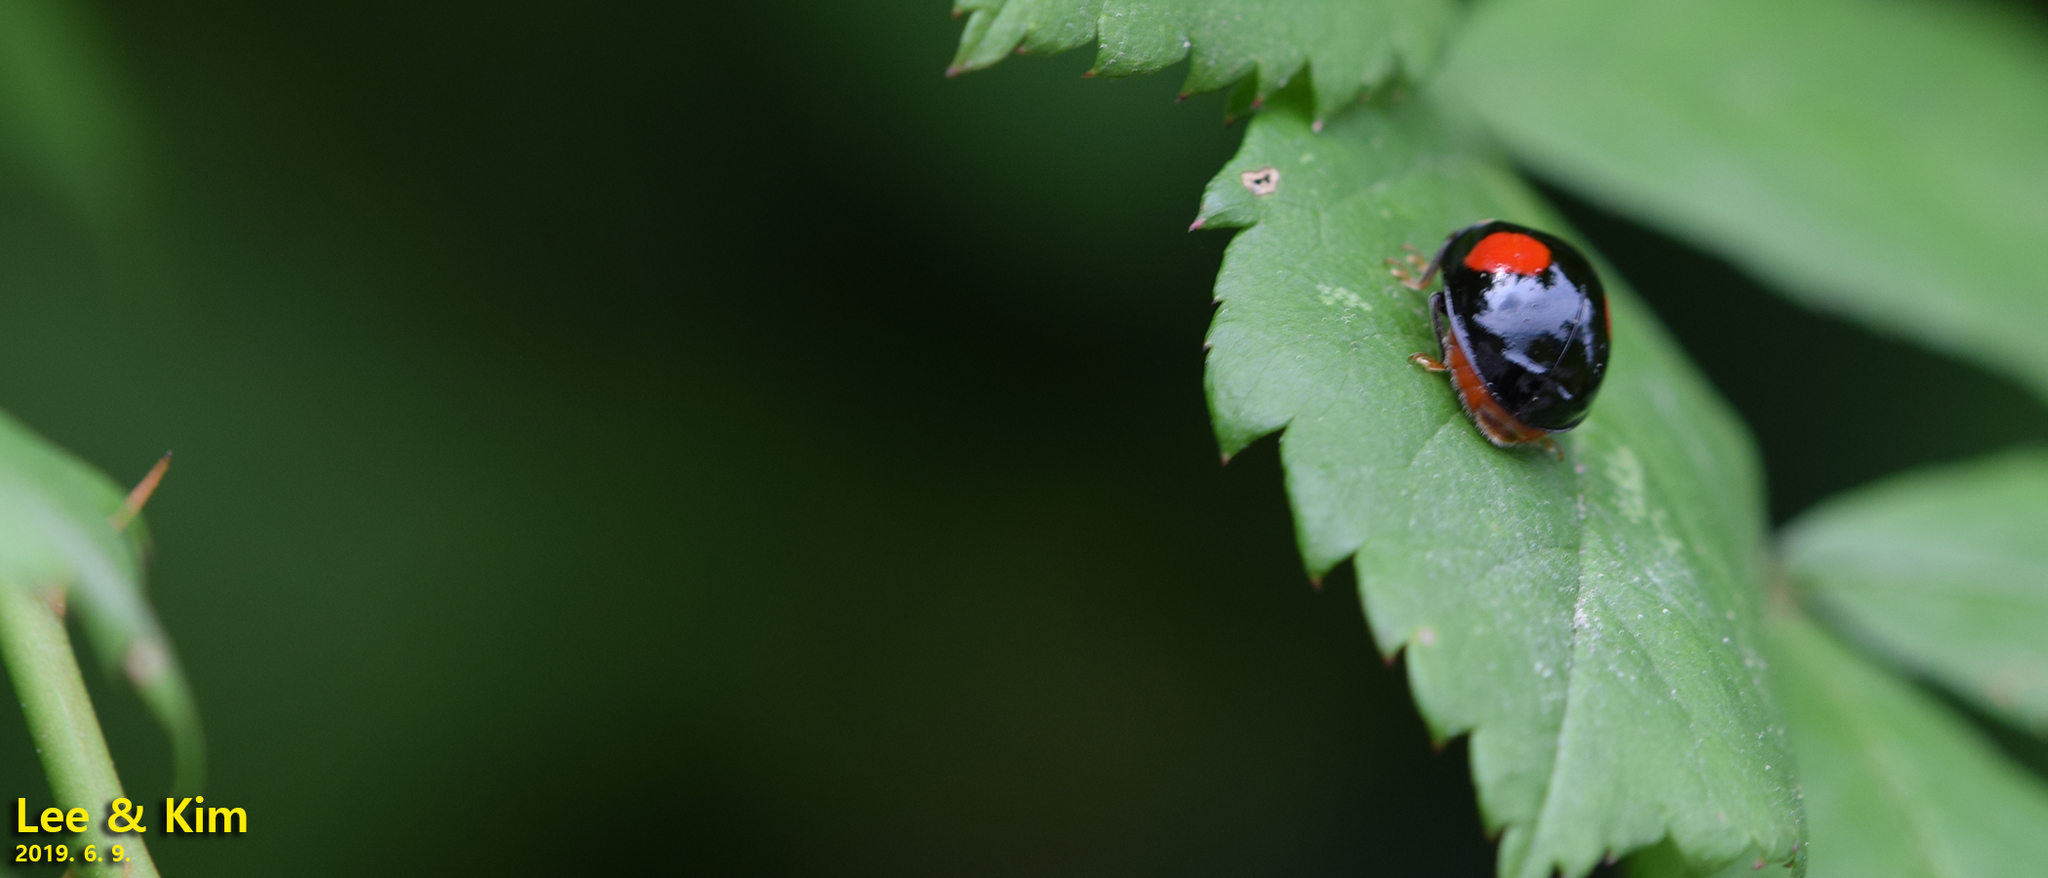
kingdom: Animalia
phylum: Arthropoda
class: Insecta
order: Coleoptera
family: Coccinellidae
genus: Harmonia
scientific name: Harmonia axyridis
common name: Harlequin ladybird
